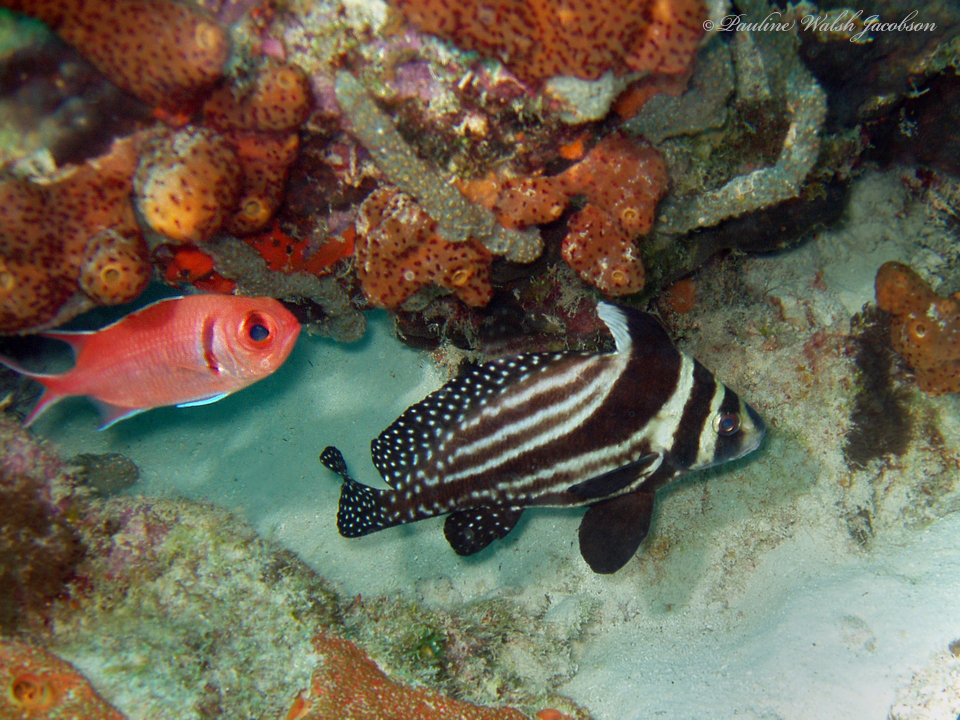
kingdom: Animalia
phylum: Chordata
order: Beryciformes
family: Holocentridae
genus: Myripristis
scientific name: Myripristis jacobus
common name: Blackbar soldierfish
